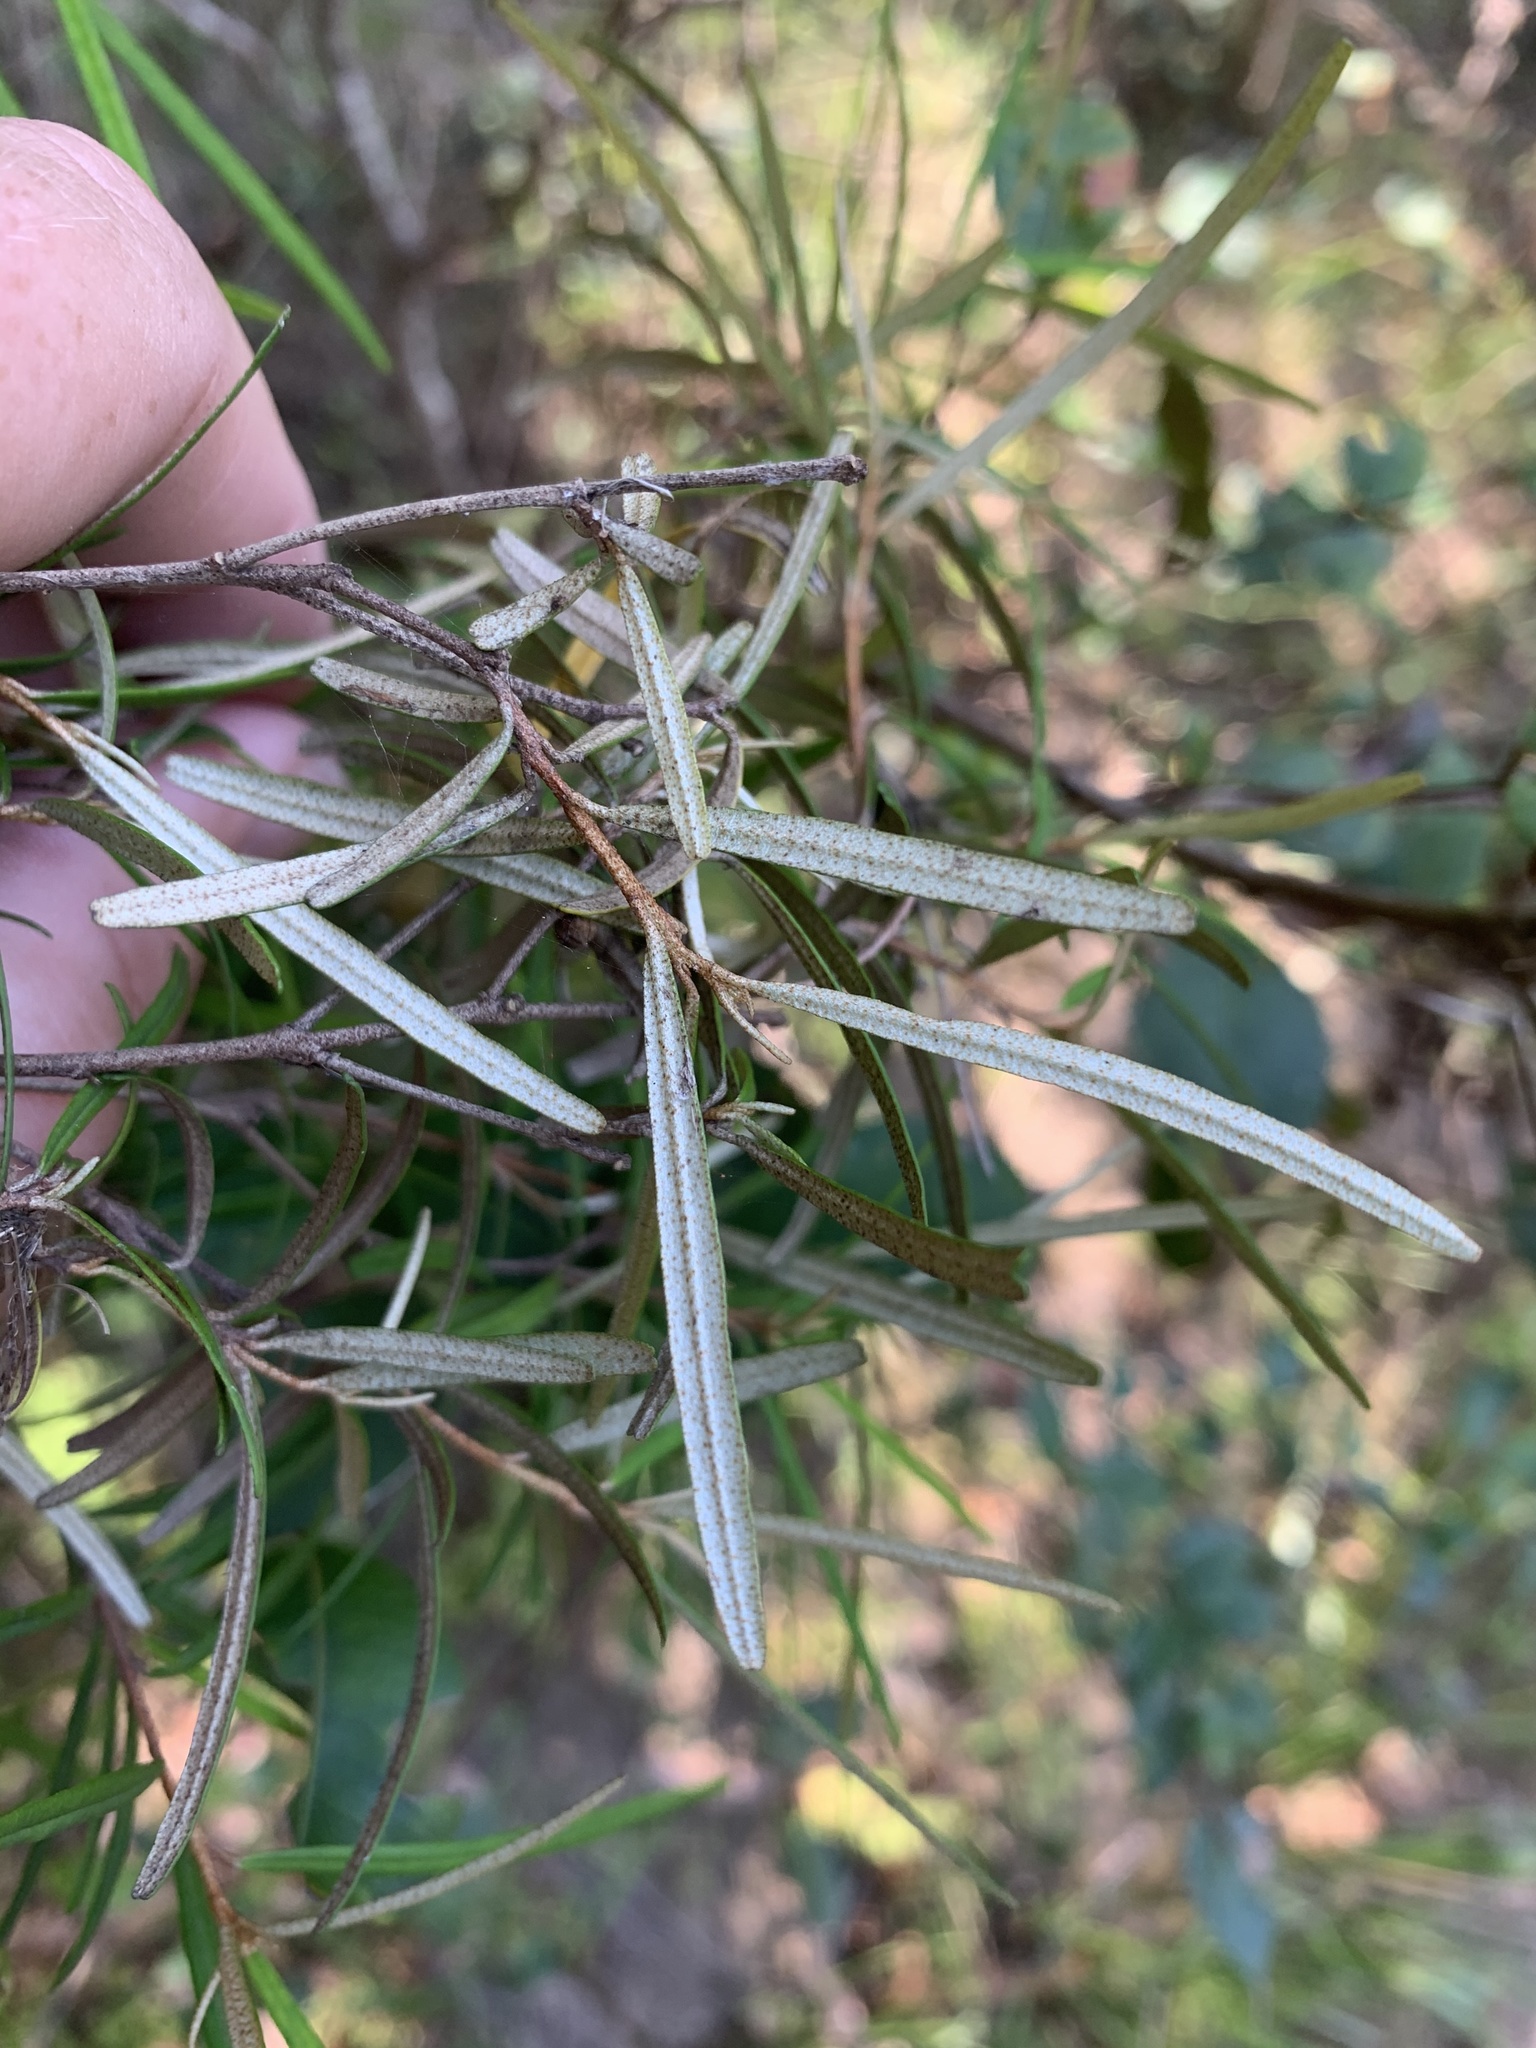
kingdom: Plantae
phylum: Tracheophyta
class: Magnoliopsida
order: Sapindales
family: Rutaceae
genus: Phebalium
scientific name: Phebalium squamulosum
